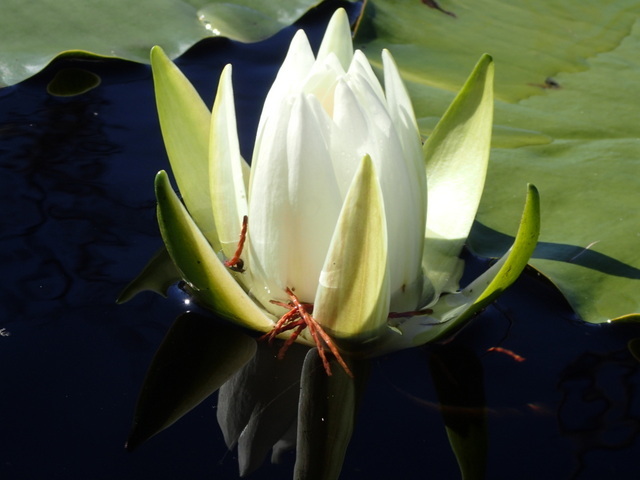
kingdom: Plantae
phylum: Tracheophyta
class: Magnoliopsida
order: Nymphaeales
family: Nymphaeaceae
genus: Nymphaea
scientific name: Nymphaea odorata
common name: Fragrant water-lily
